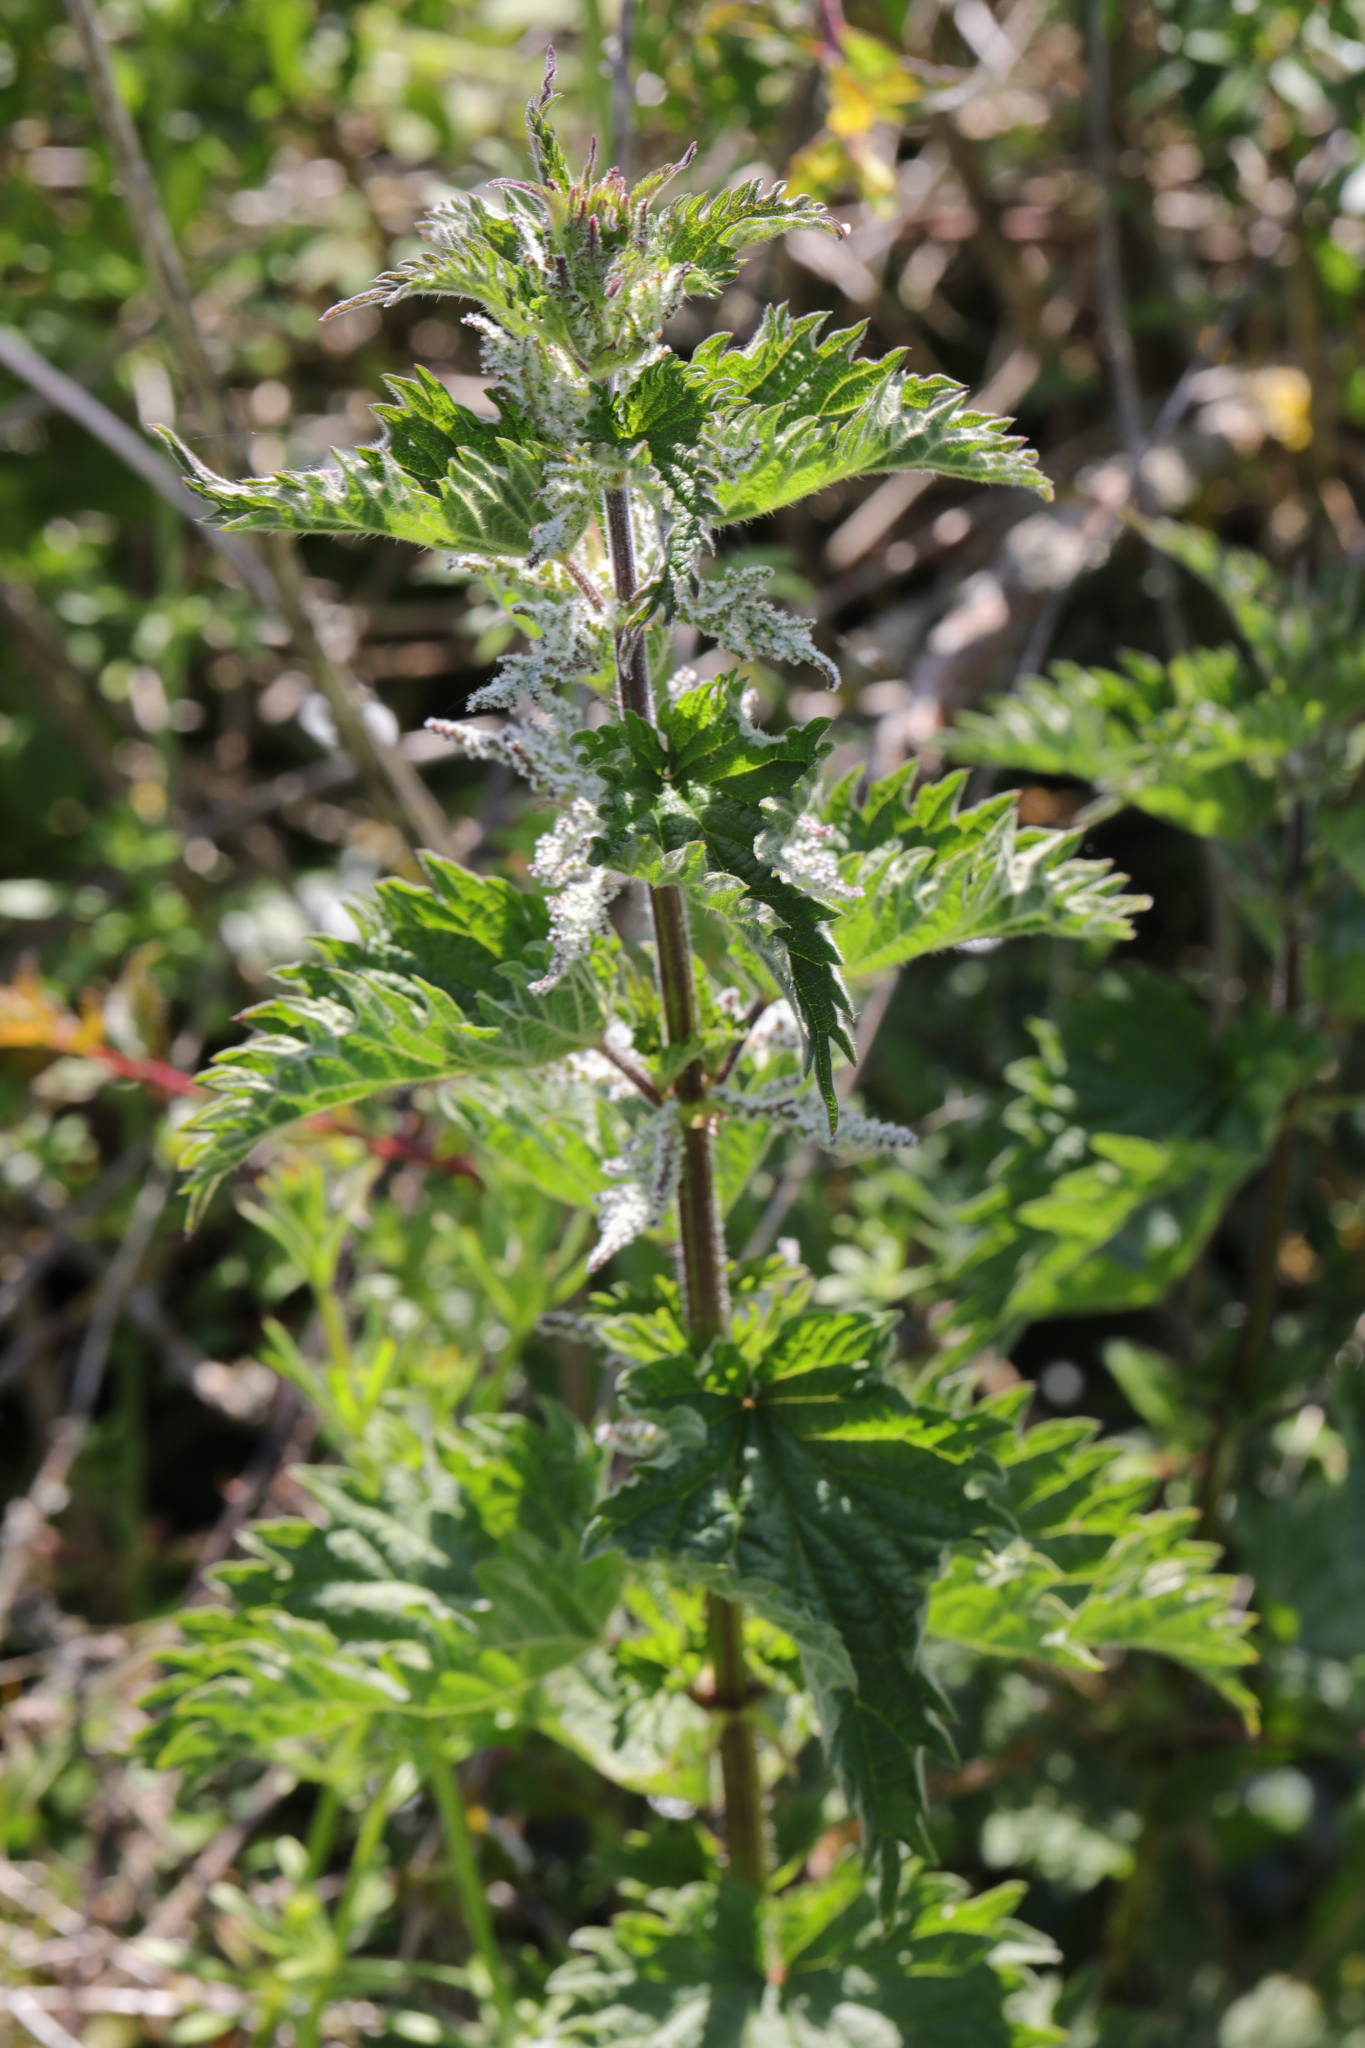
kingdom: Plantae
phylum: Tracheophyta
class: Magnoliopsida
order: Rosales
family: Urticaceae
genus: Urtica
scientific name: Urtica dioica
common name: Common nettle
